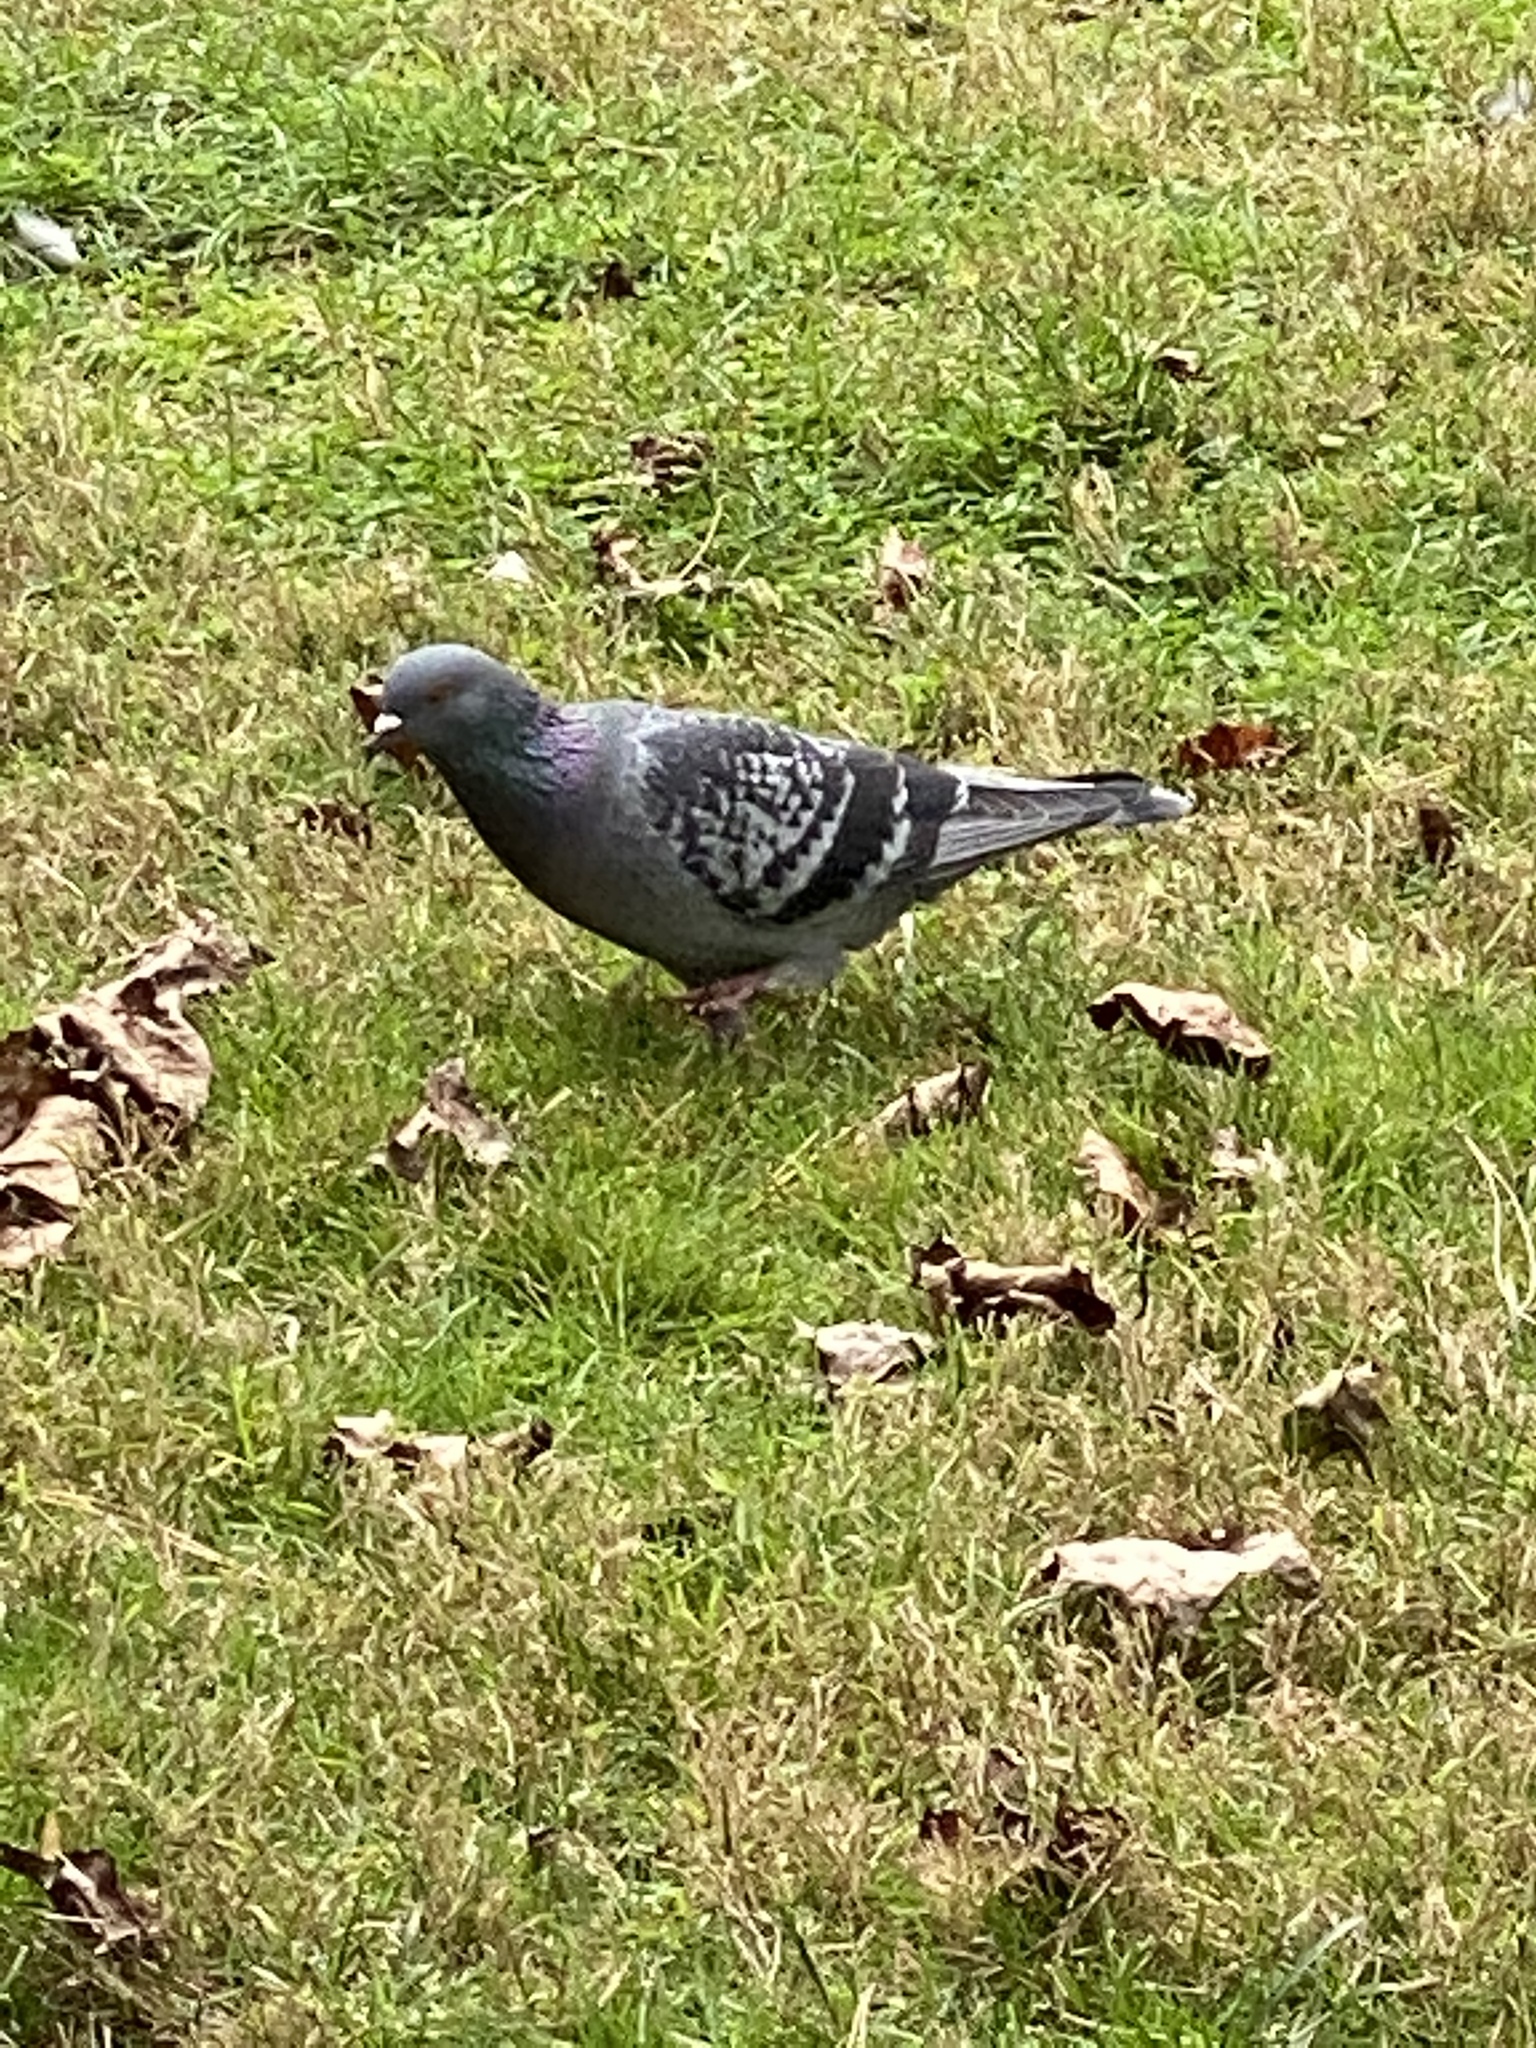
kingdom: Animalia
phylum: Chordata
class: Aves
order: Columbiformes
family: Columbidae
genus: Columba
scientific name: Columba livia
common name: Rock pigeon
